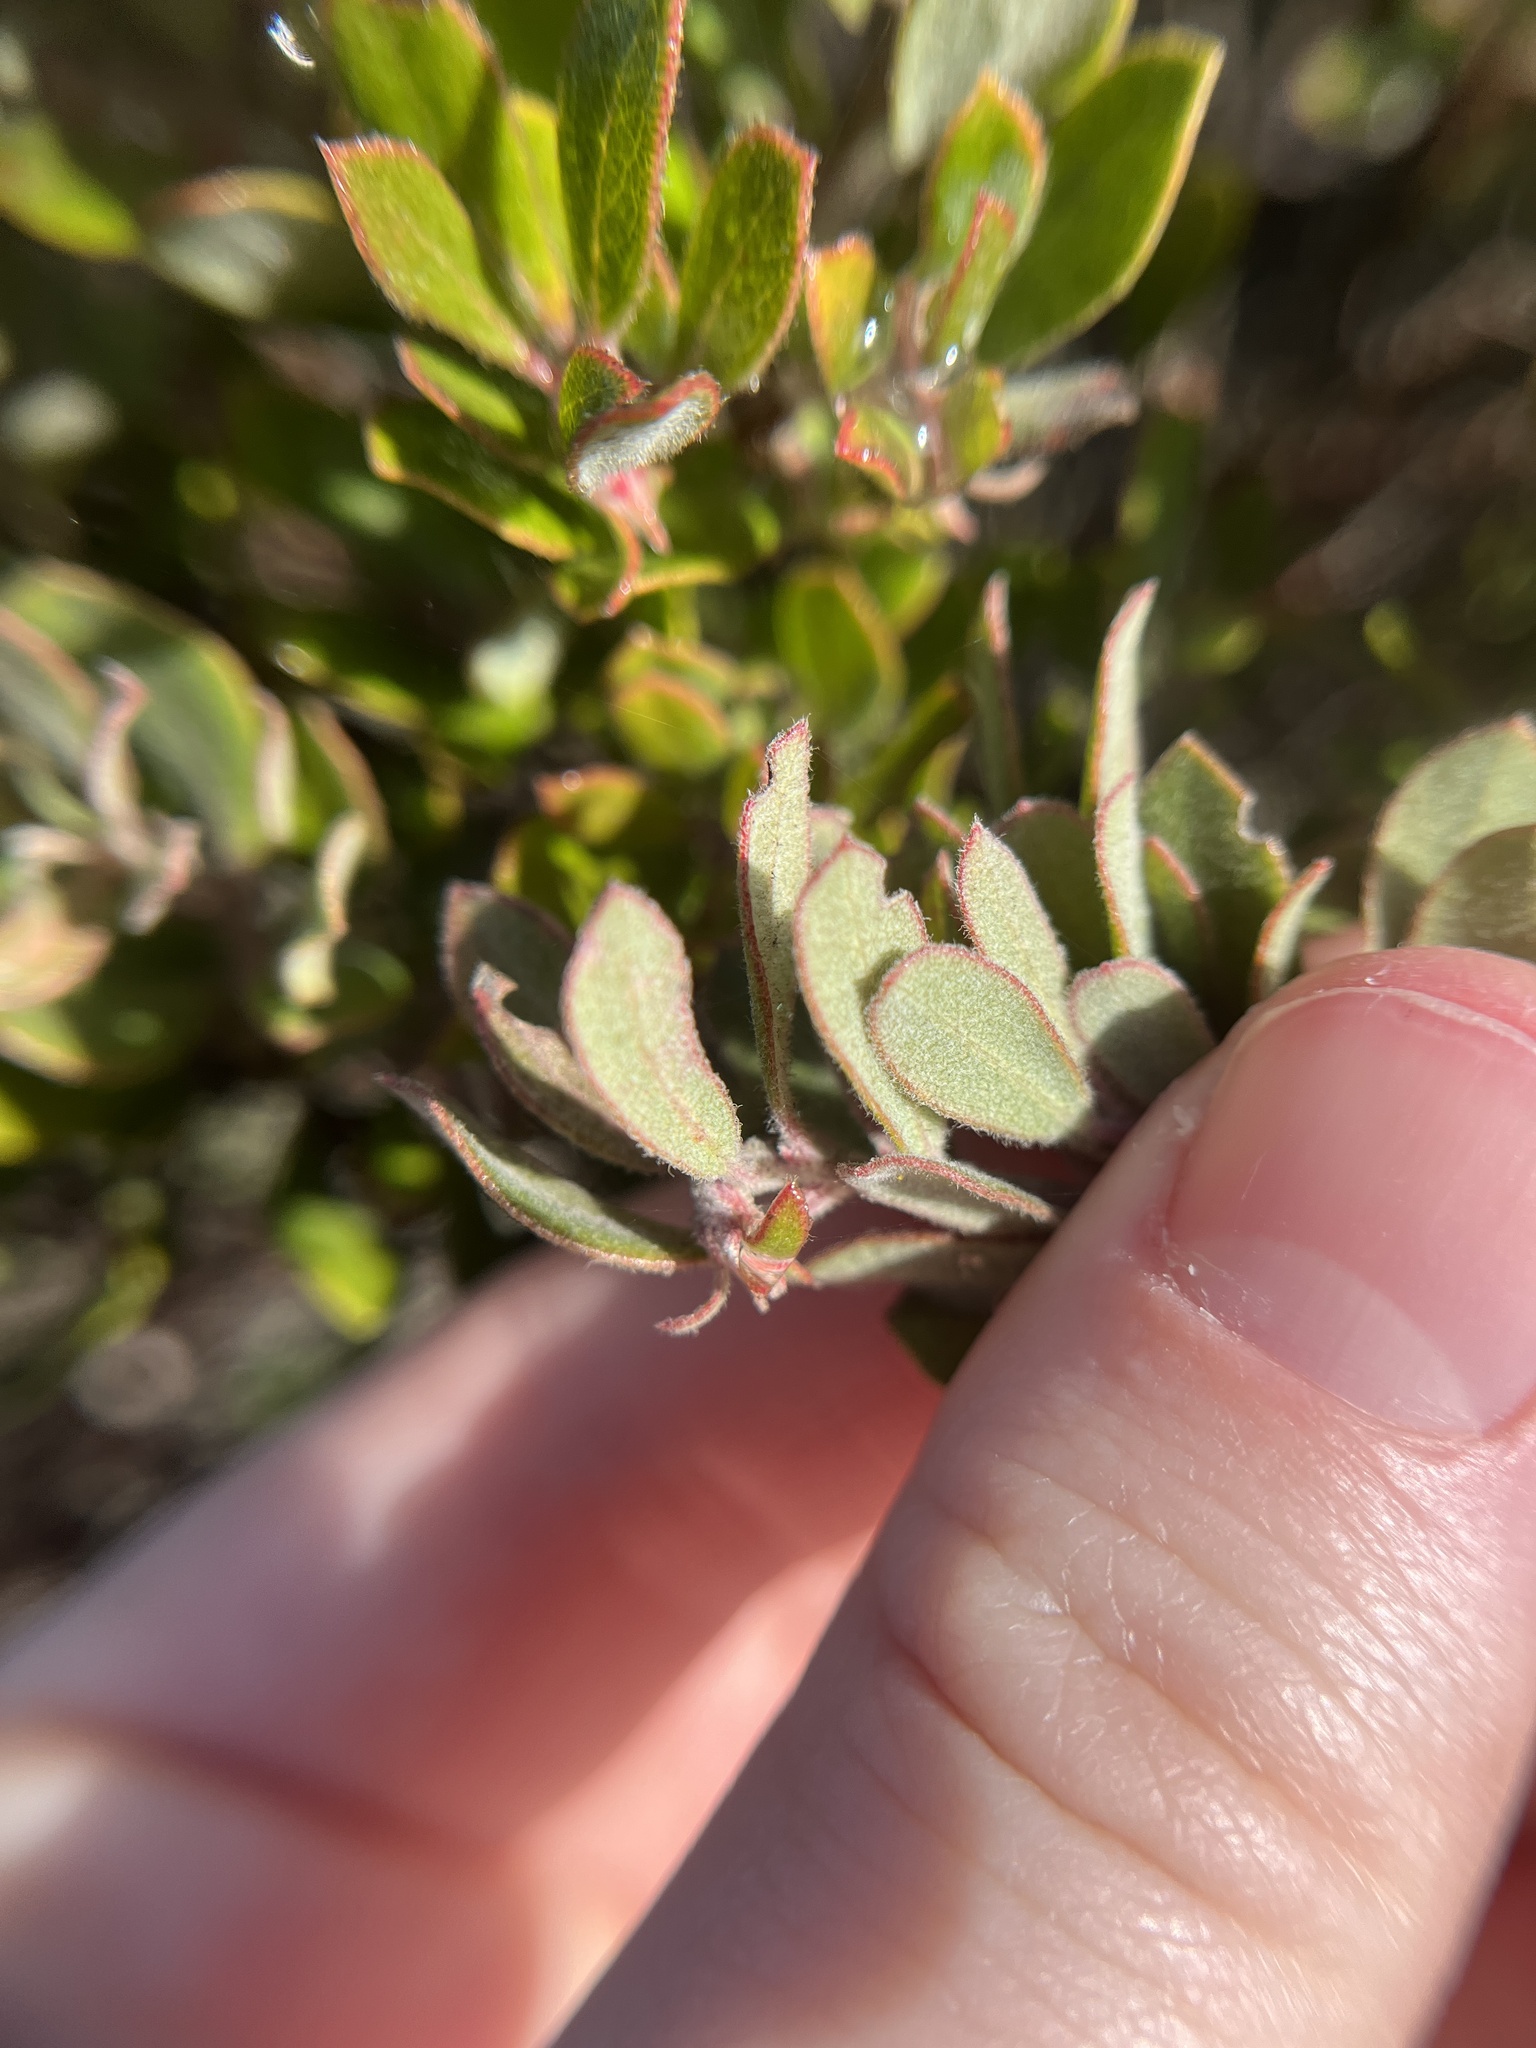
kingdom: Plantae
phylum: Tracheophyta
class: Magnoliopsida
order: Ericales
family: Ericaceae
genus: Arctostaphylos
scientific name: Arctostaphylos pumila
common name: Sandmat manzanita
